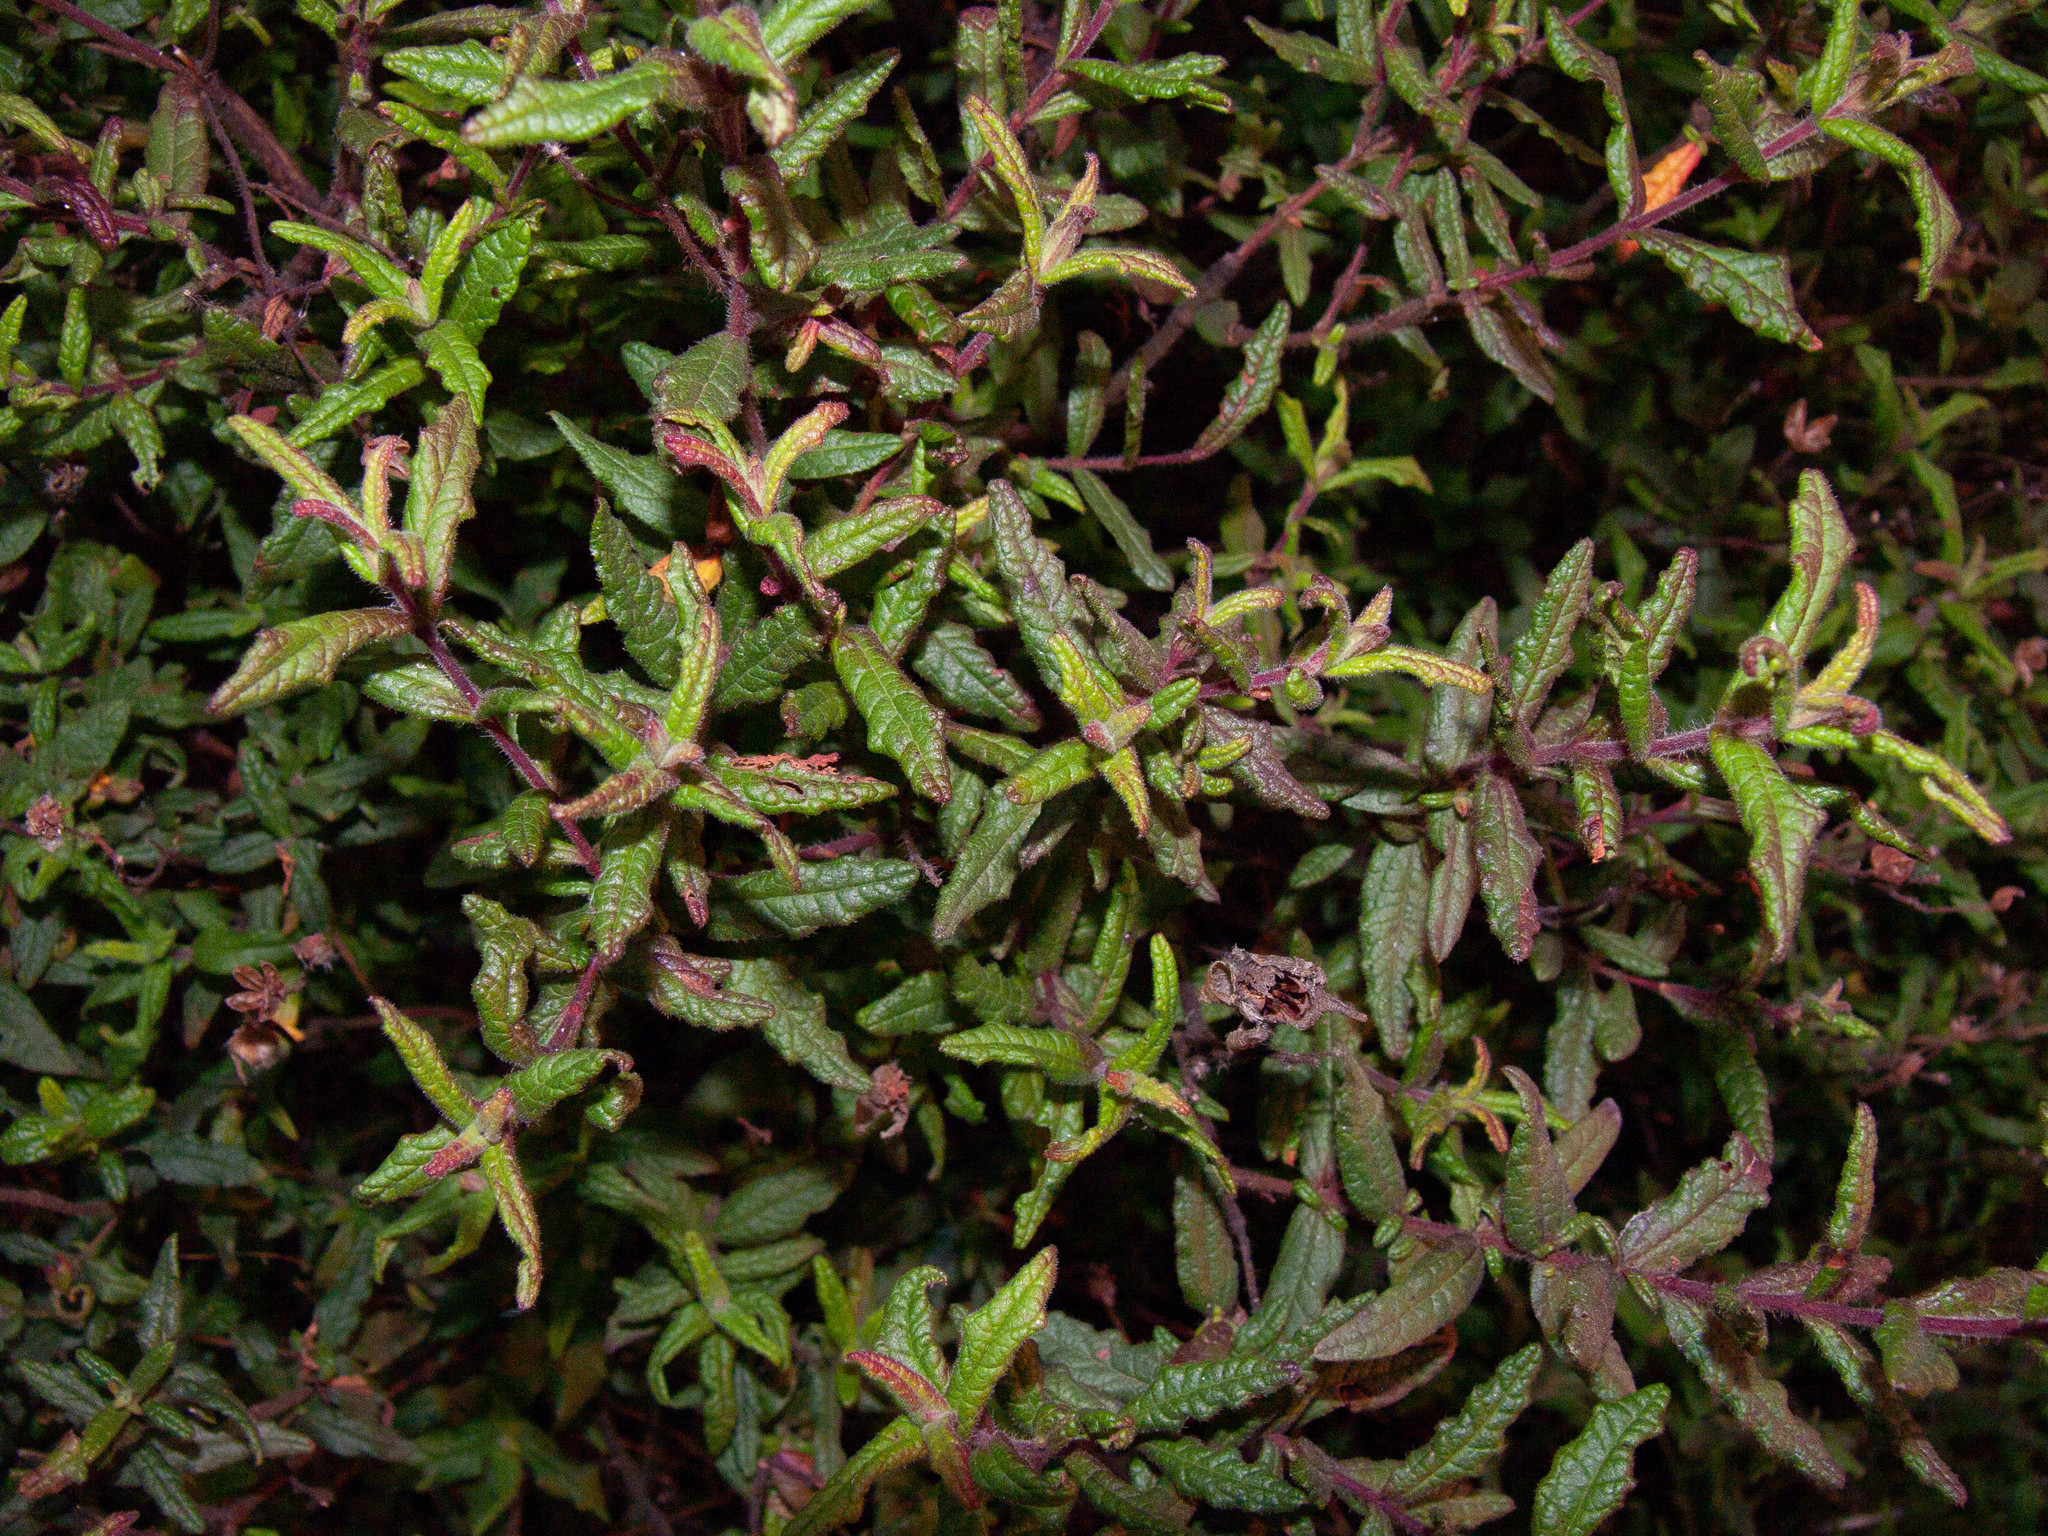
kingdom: Plantae
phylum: Tracheophyta
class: Magnoliopsida
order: Malvales
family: Cistaceae
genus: Cistus
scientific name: Cistus inflatus
